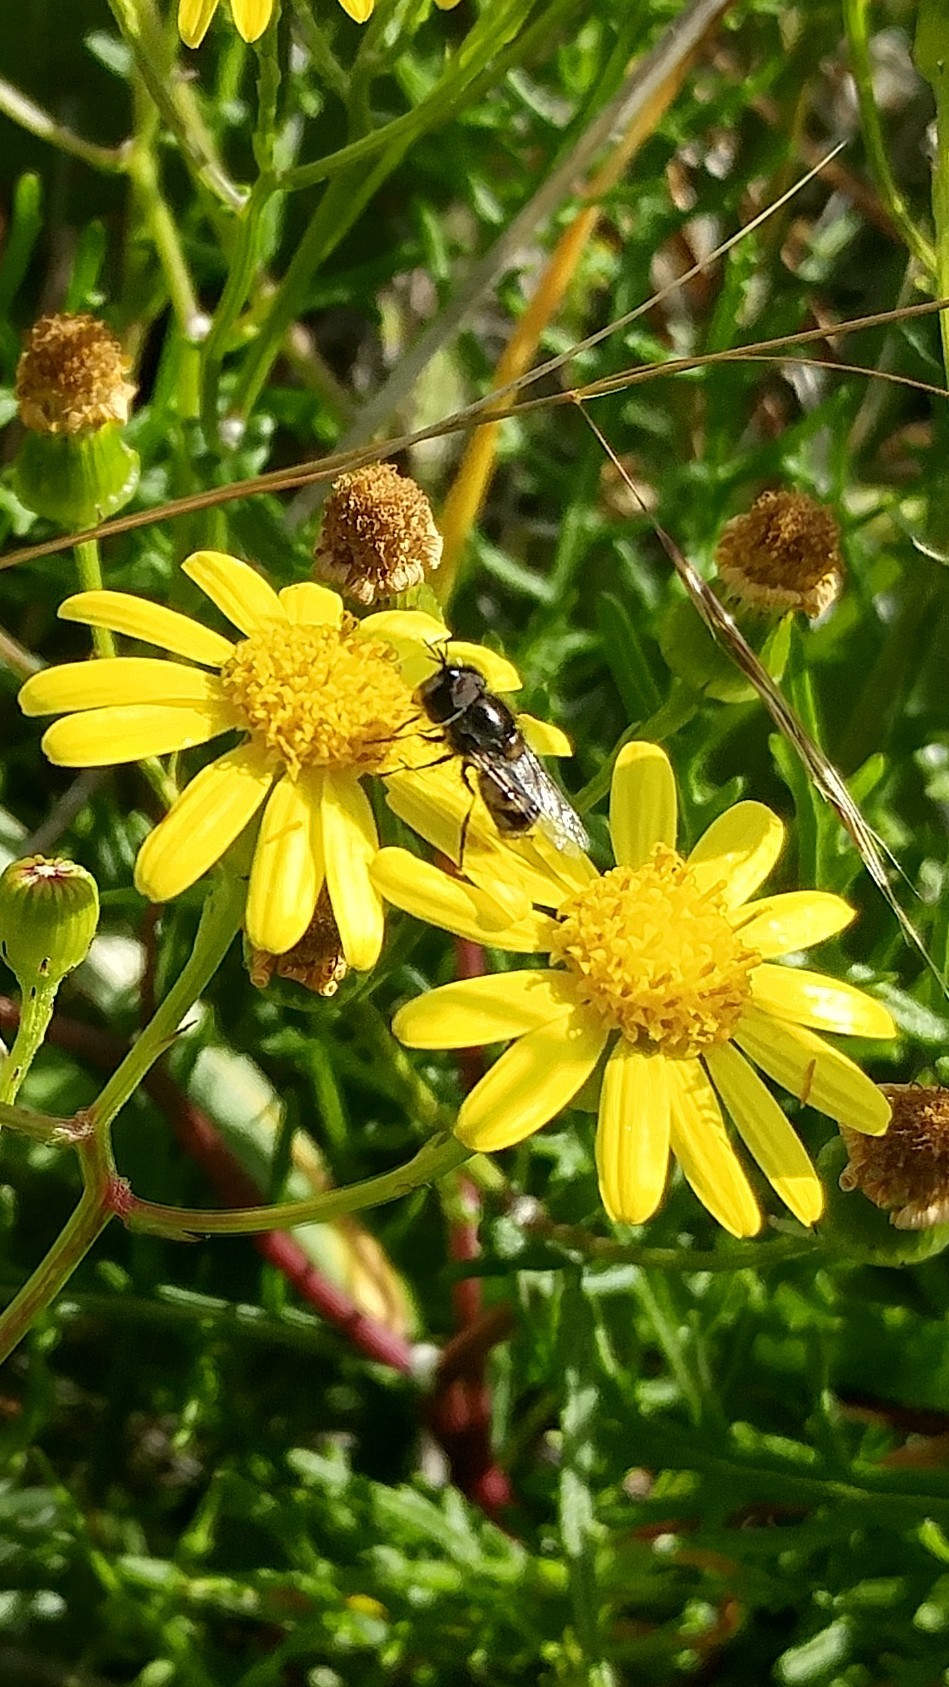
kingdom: Animalia
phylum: Arthropoda
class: Insecta
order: Diptera
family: Syrphidae
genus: Copestylum
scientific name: Copestylum lentum
